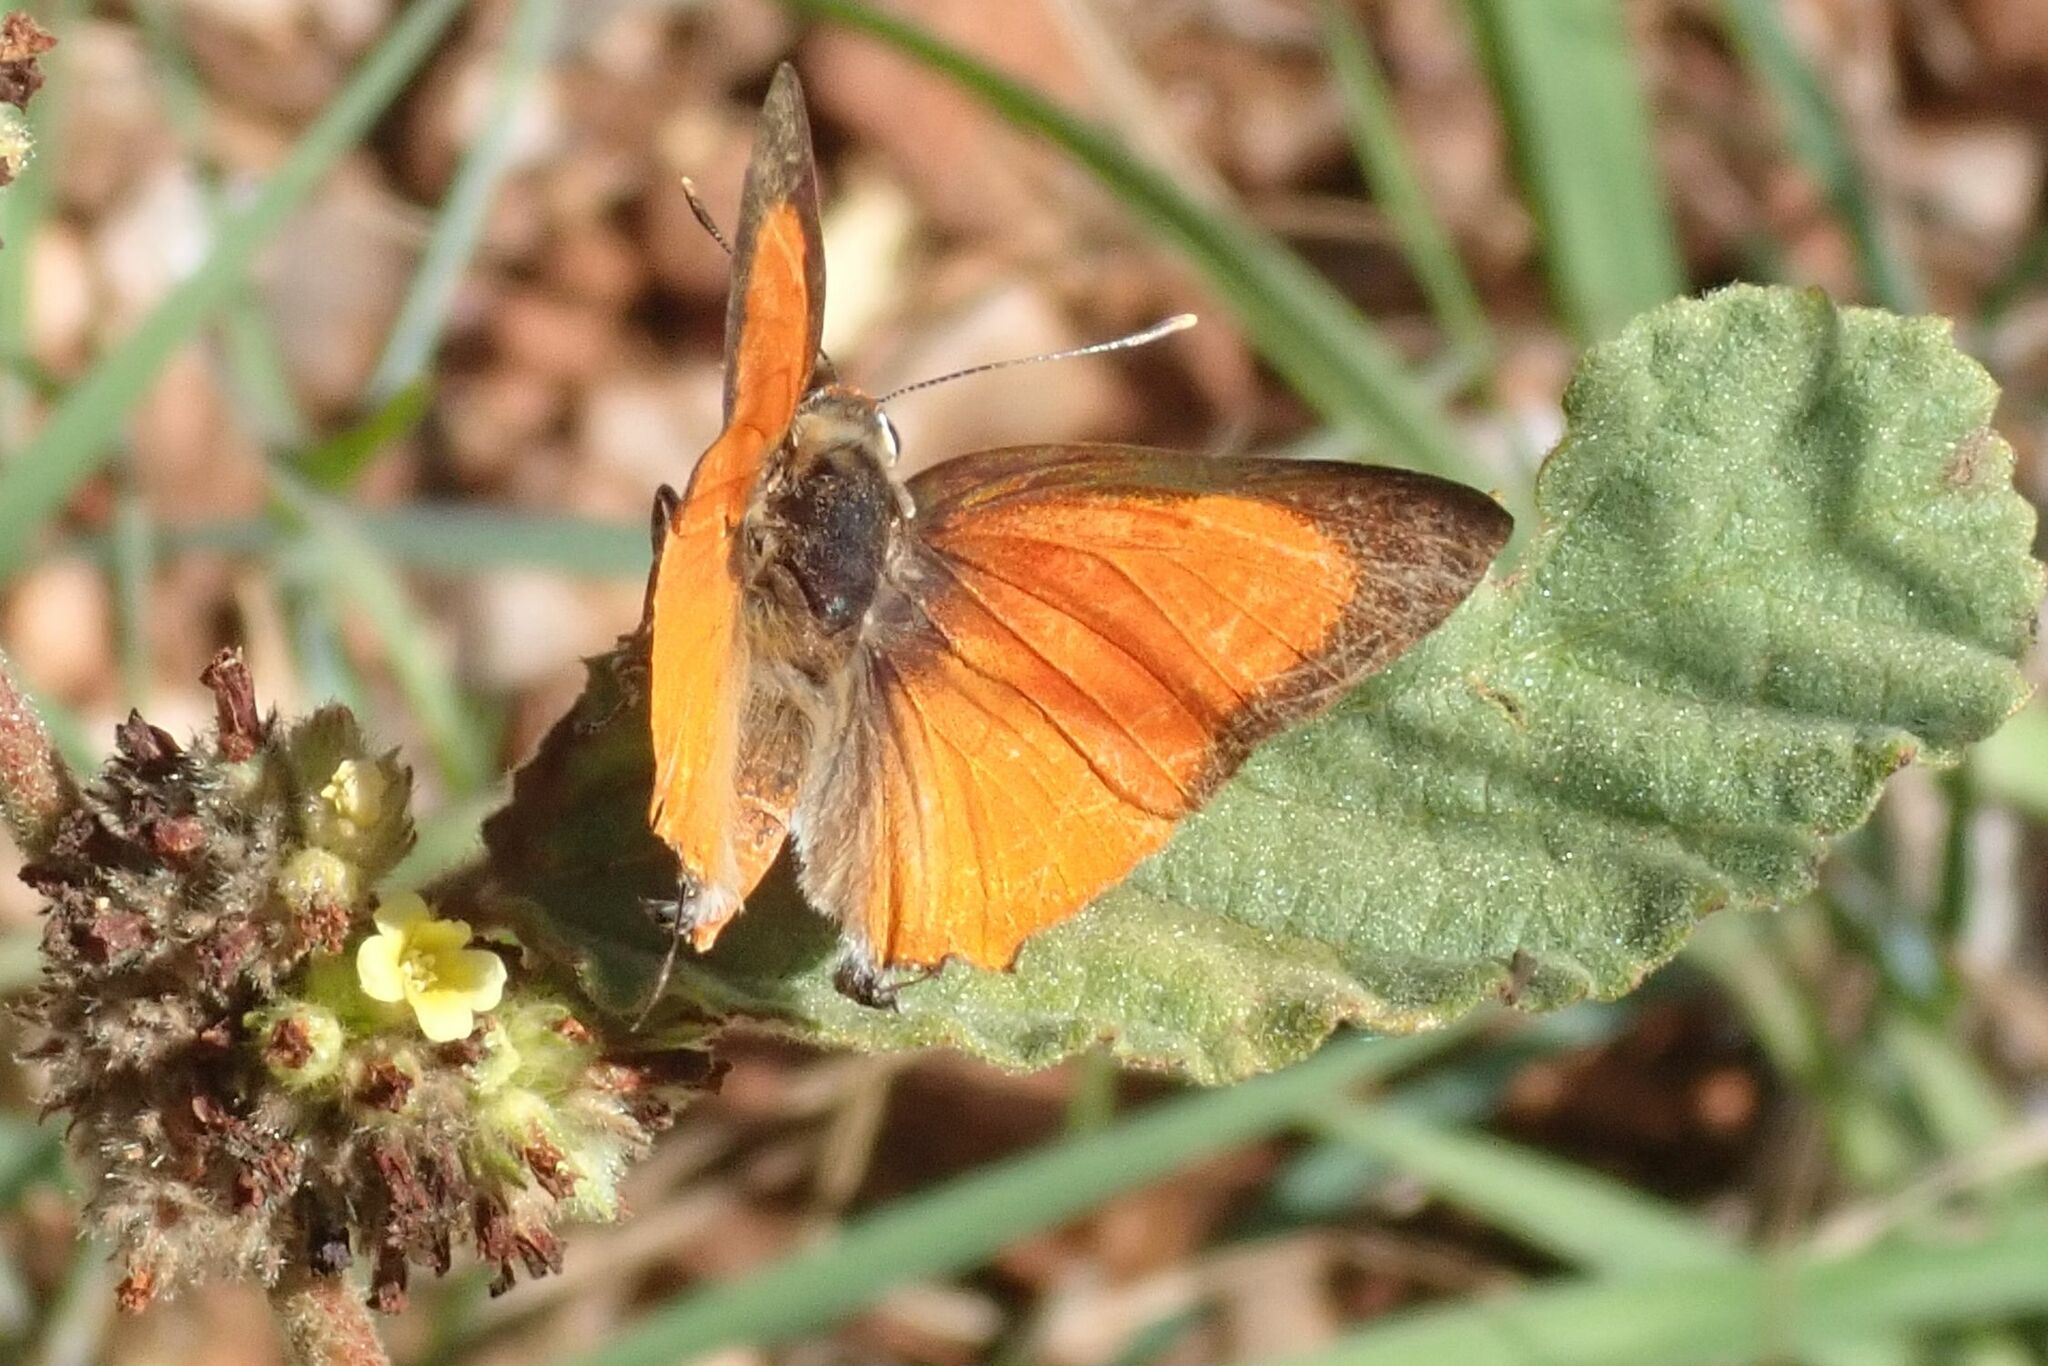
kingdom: Animalia
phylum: Arthropoda
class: Insecta
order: Lepidoptera
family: Lycaenidae
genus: Deudorix
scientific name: Deudorix dinochares
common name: Apricot playboy
